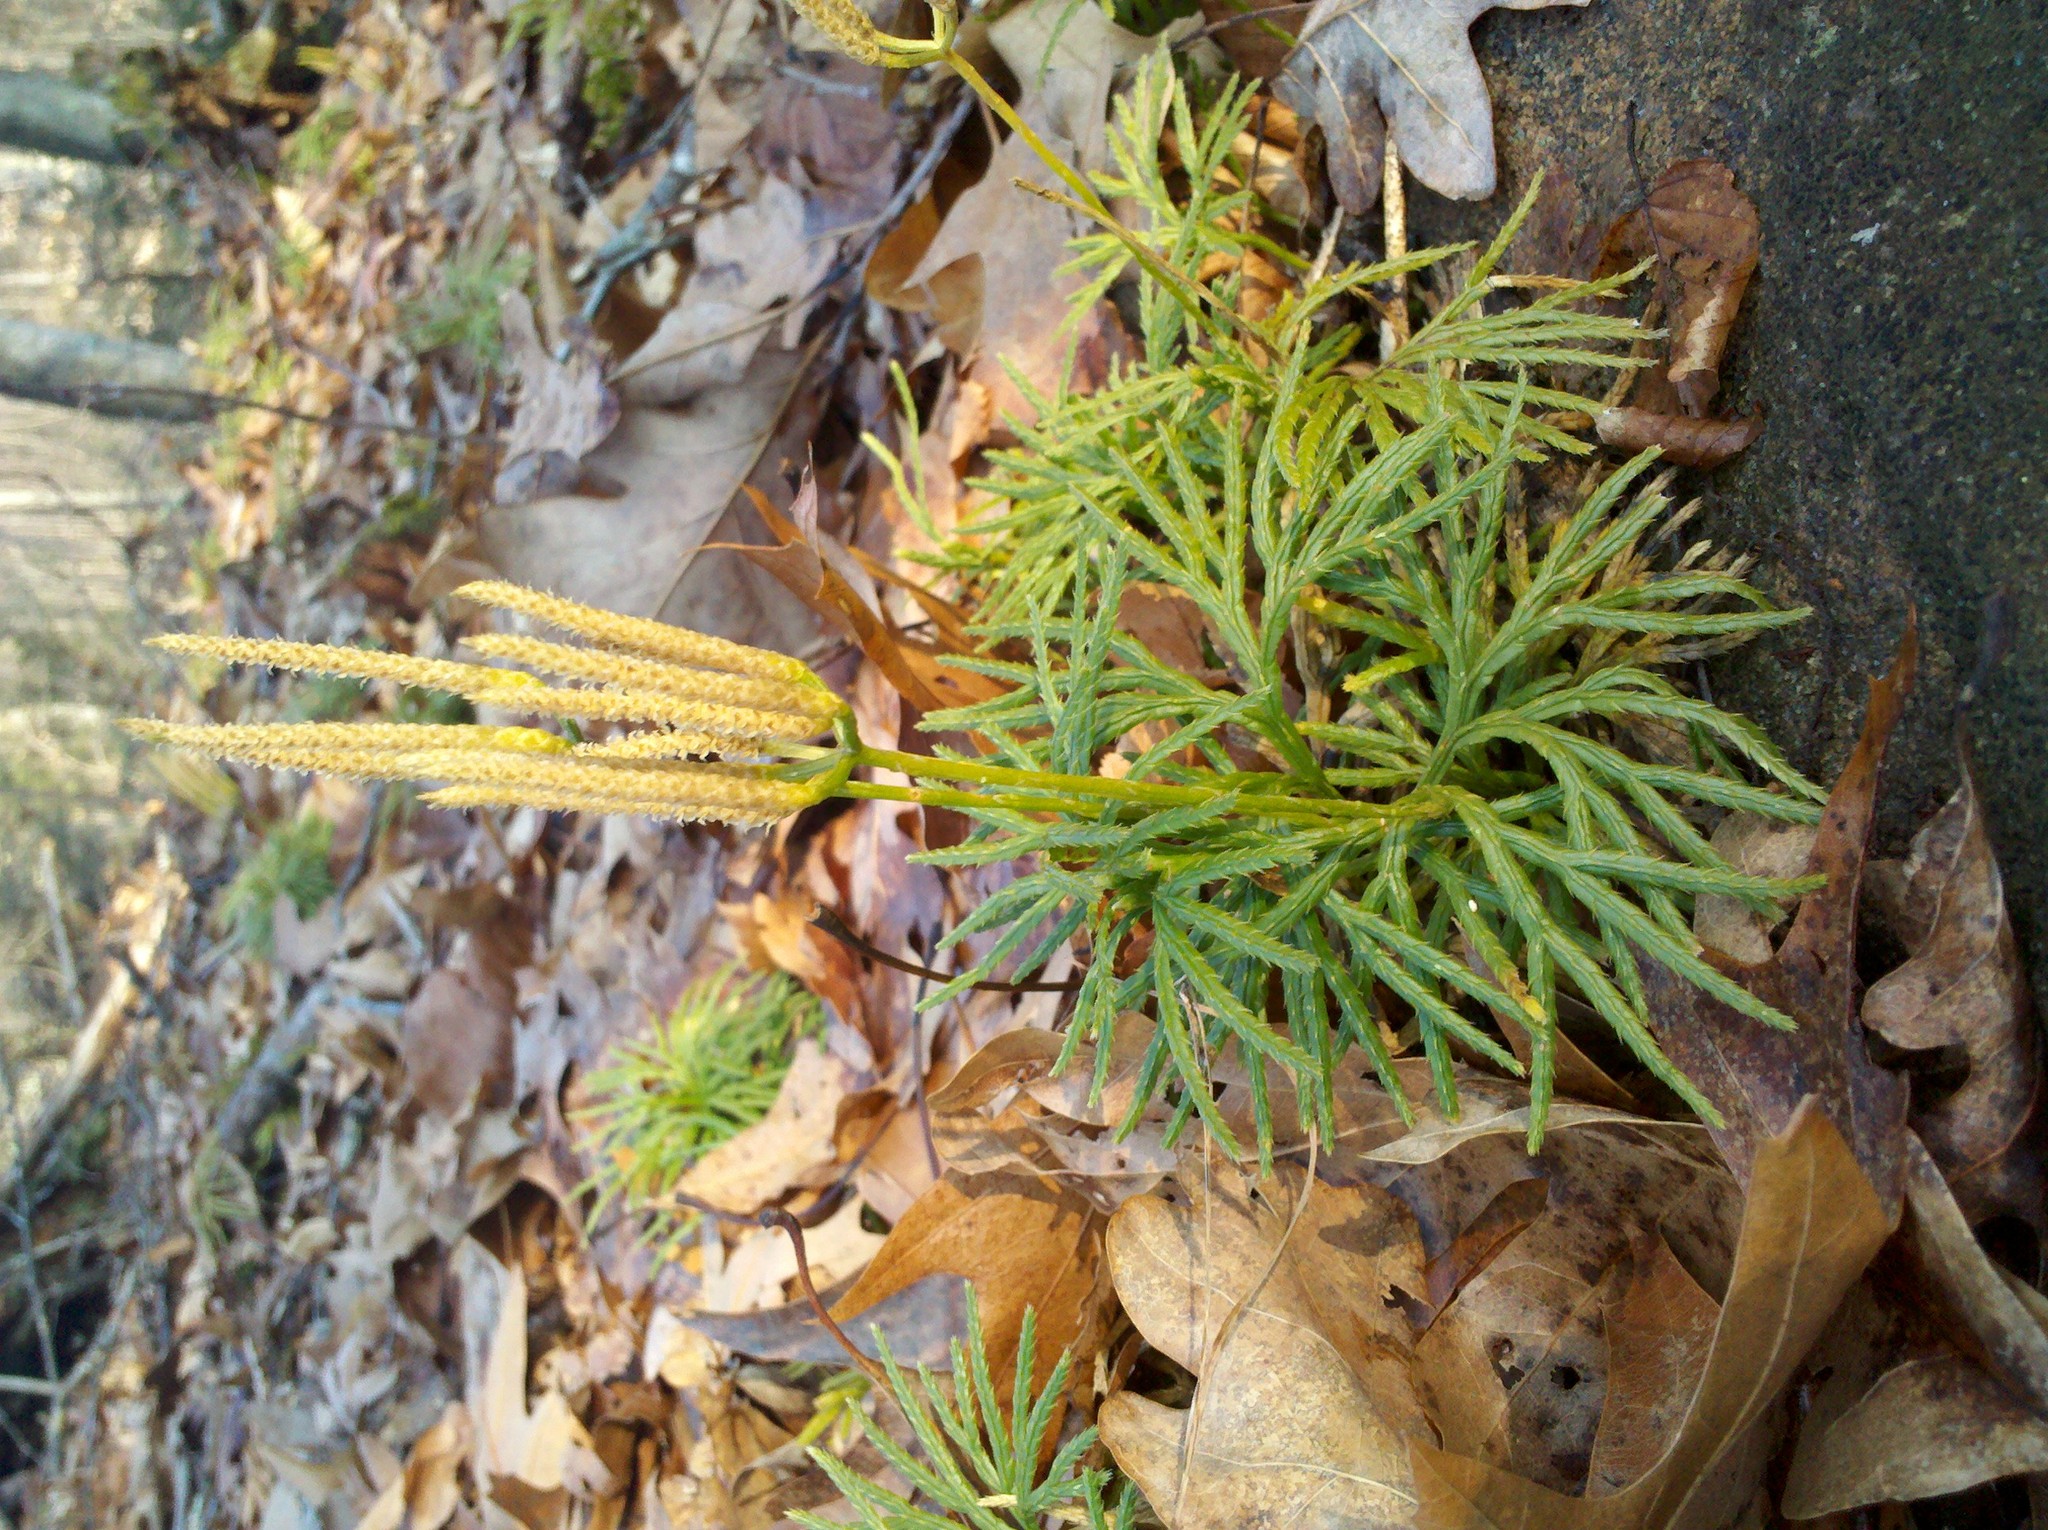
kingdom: Plantae
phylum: Tracheophyta
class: Lycopodiopsida
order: Lycopodiales
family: Lycopodiaceae
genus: Diphasiastrum
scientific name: Diphasiastrum digitatum
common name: Southern running-pine
